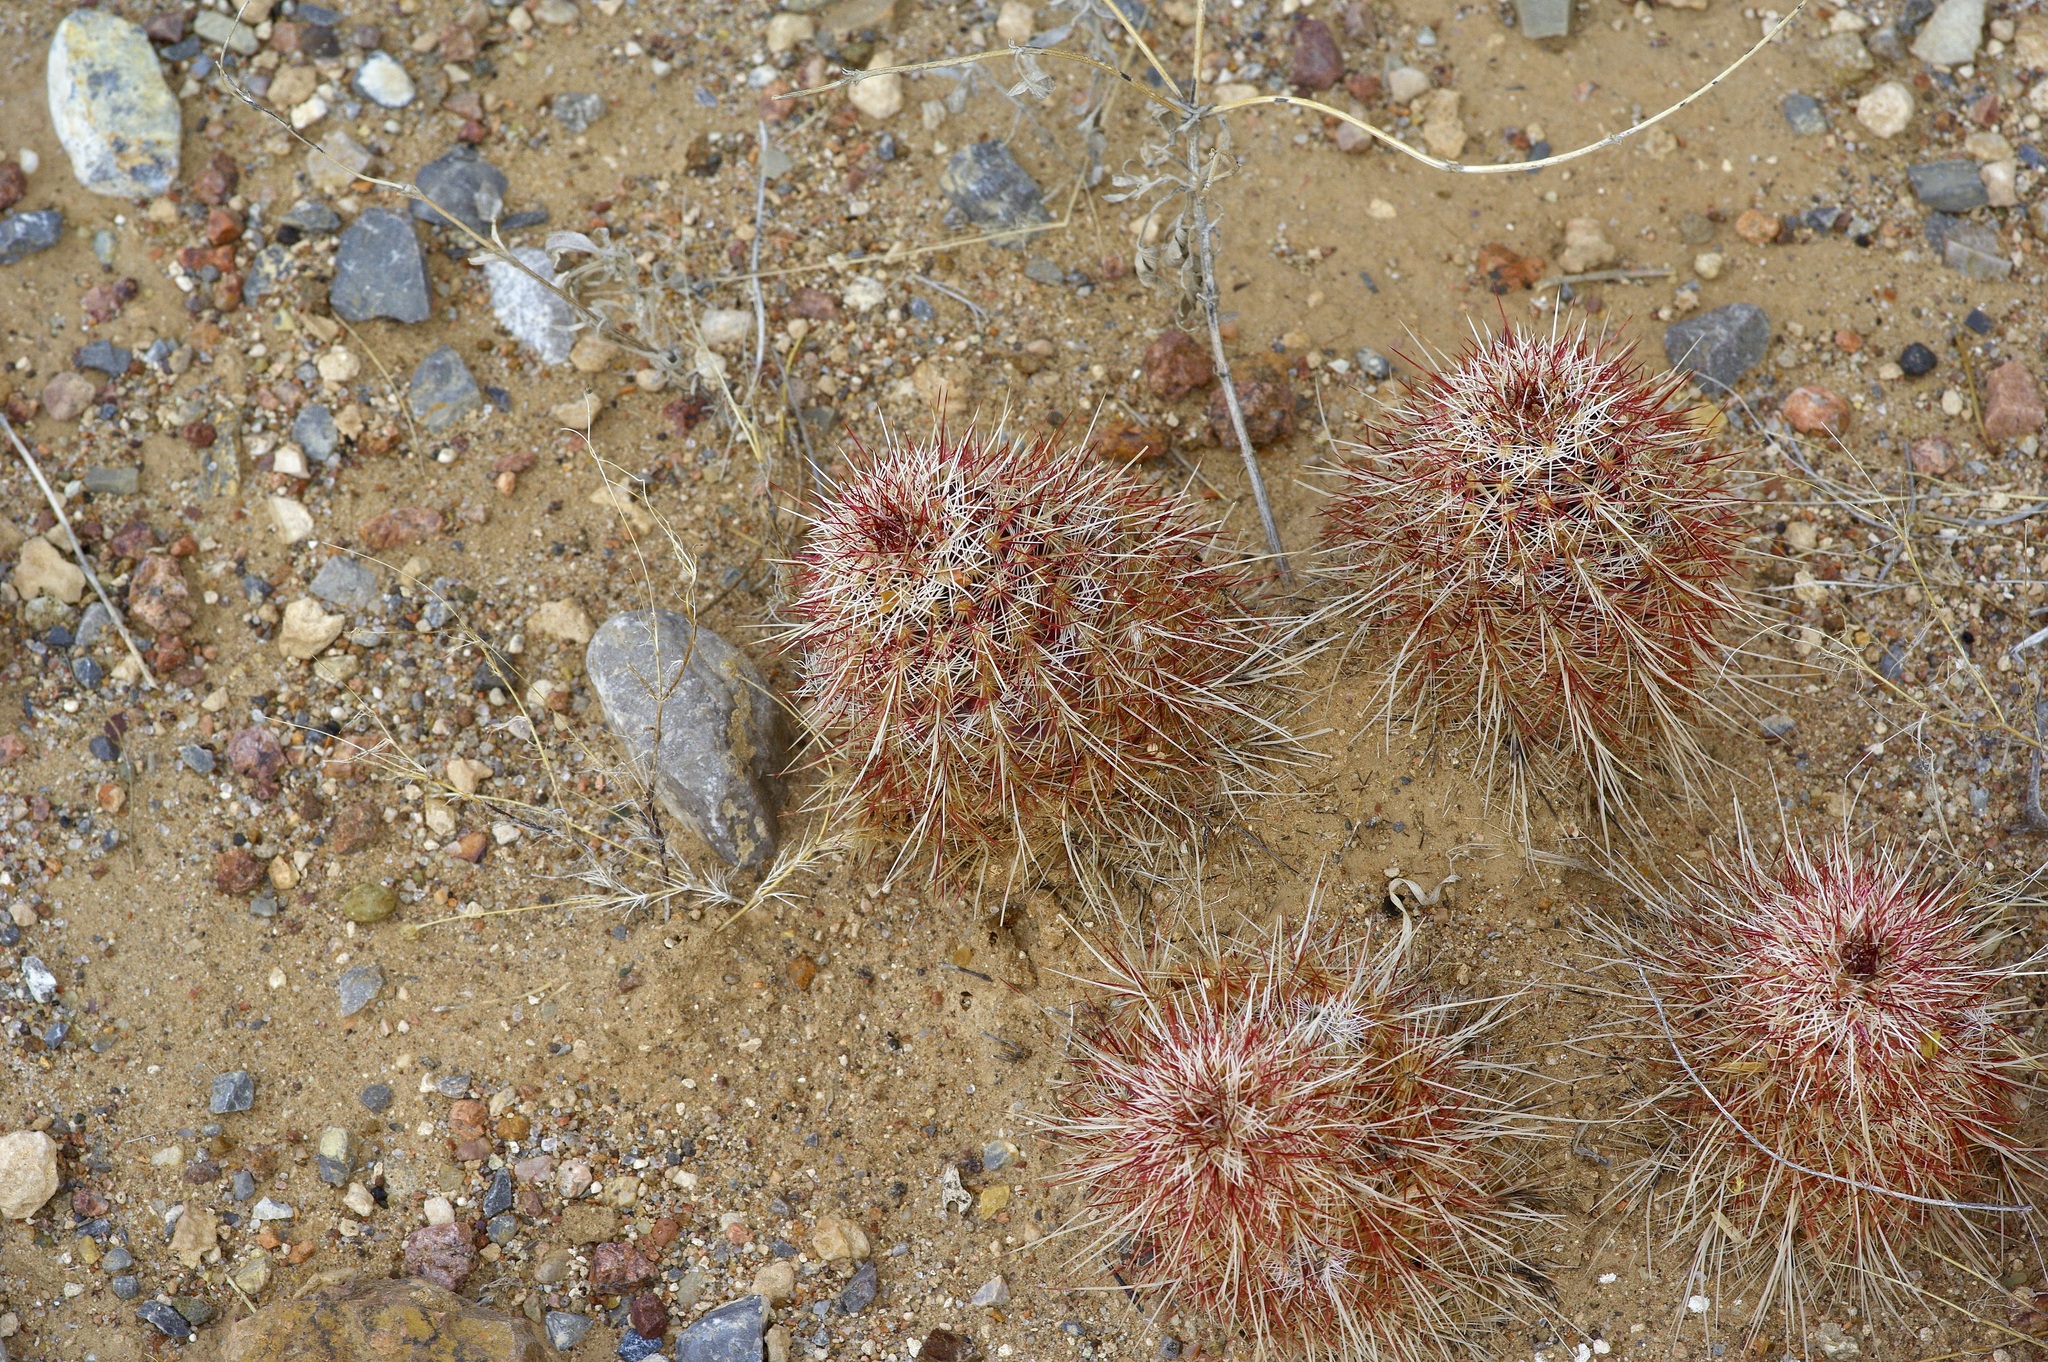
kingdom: Plantae
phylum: Tracheophyta
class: Magnoliopsida
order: Caryophyllales
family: Cactaceae
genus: Echinocereus
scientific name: Echinocereus viridiflorus
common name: Nylon hedgehog cactus
